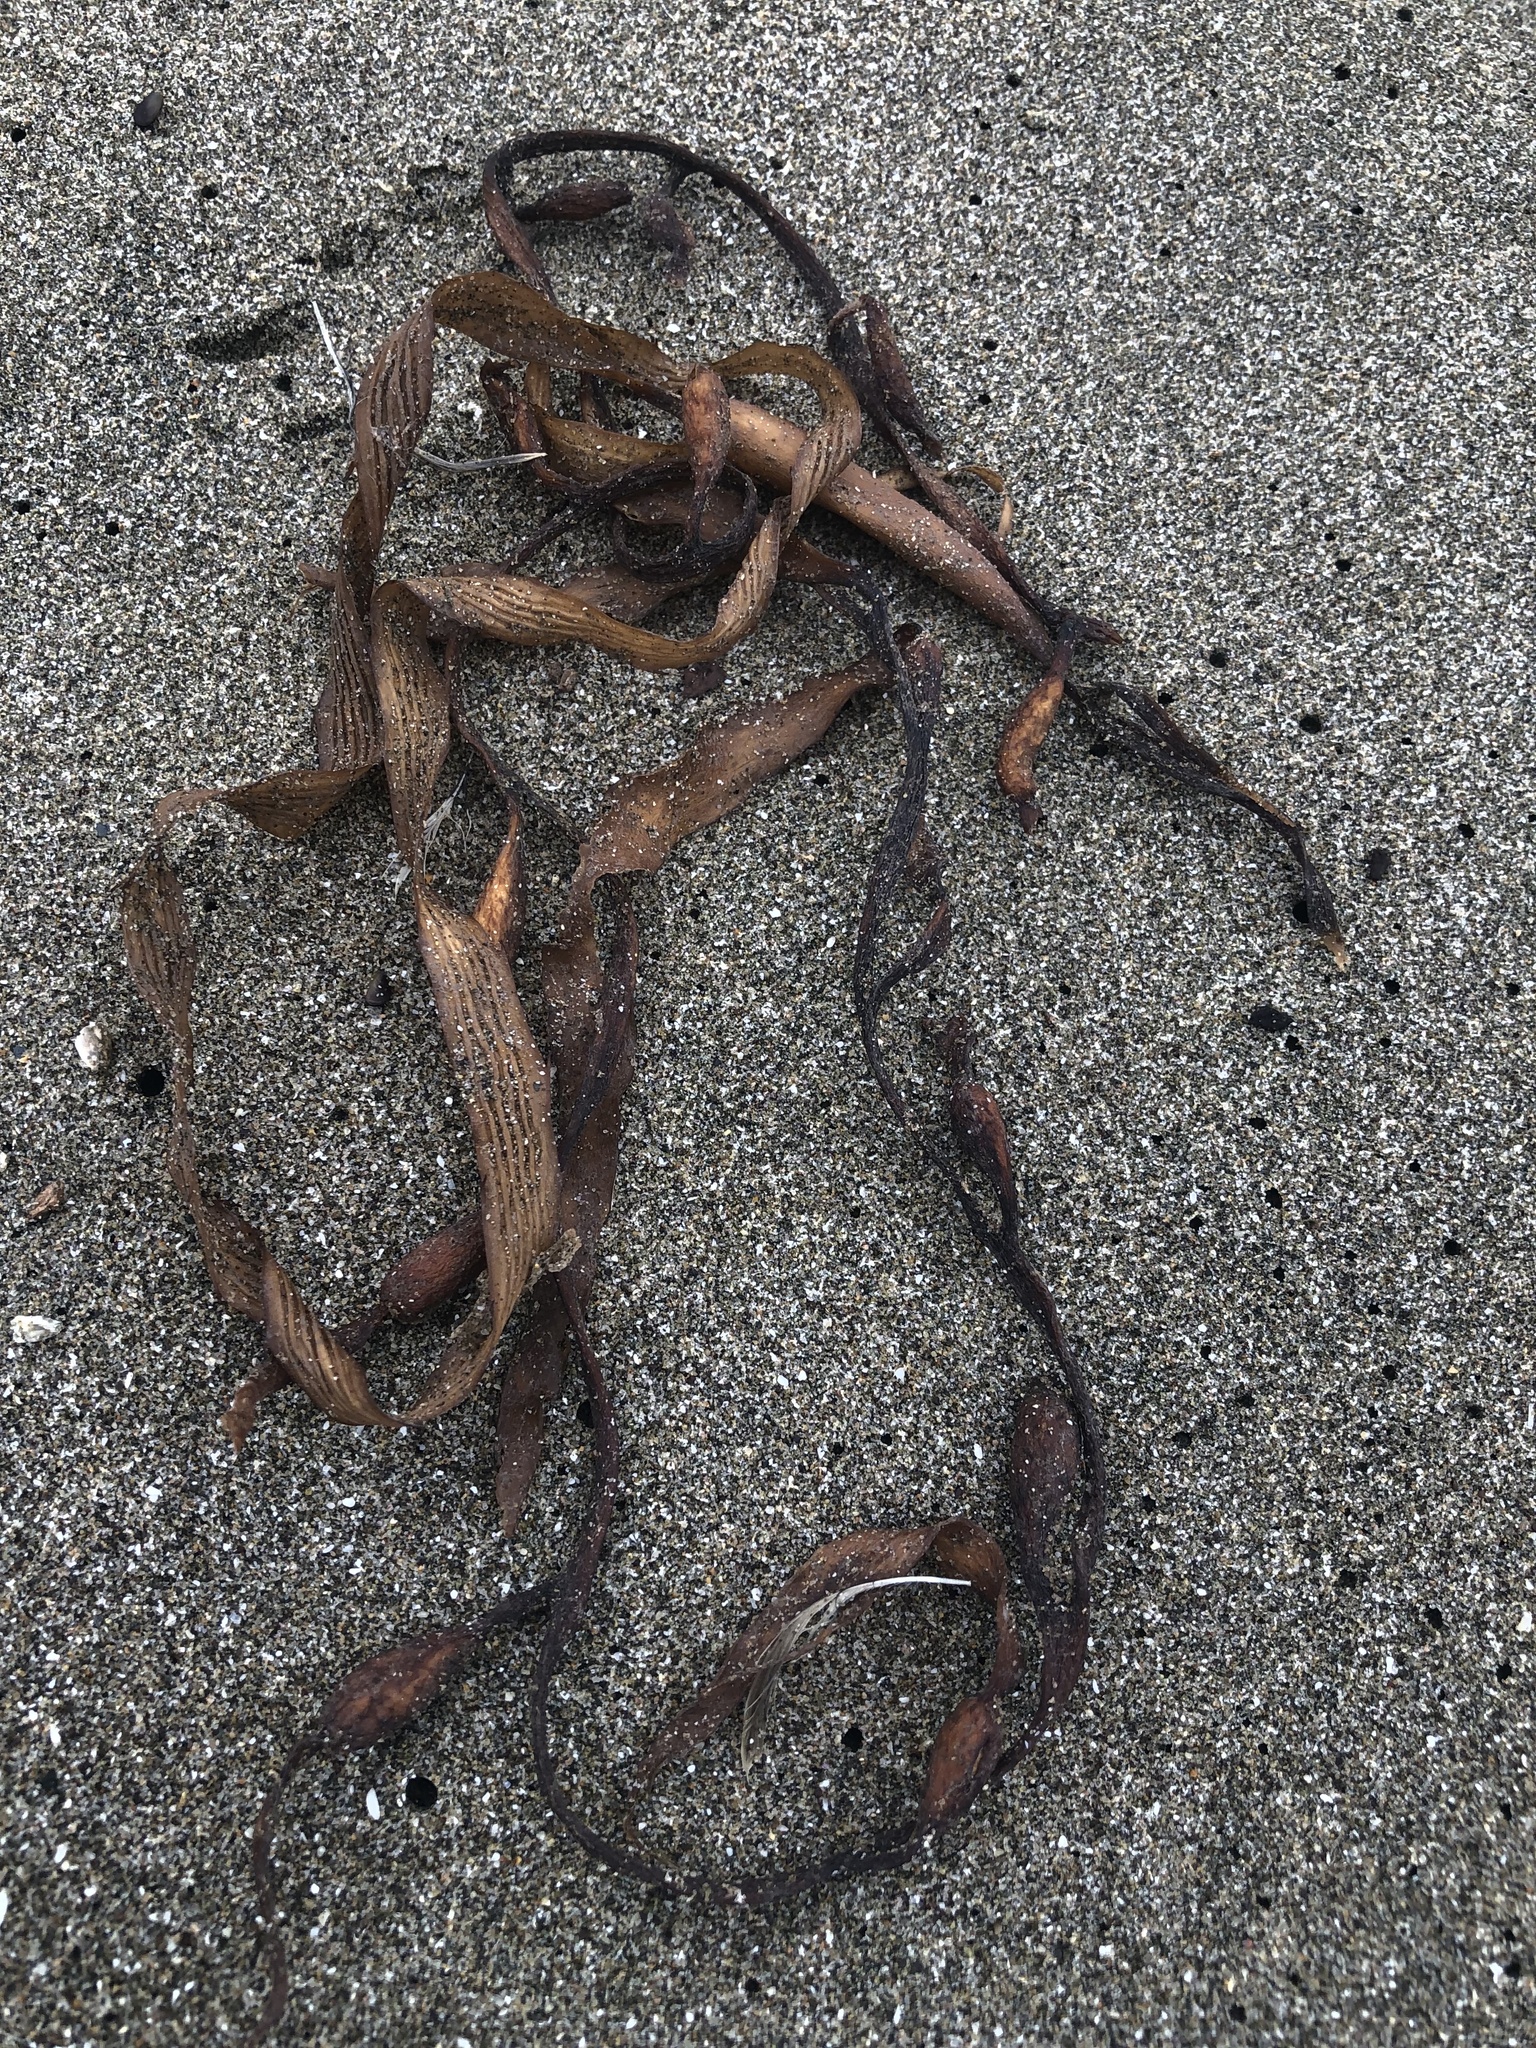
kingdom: Chromista
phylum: Ochrophyta
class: Phaeophyceae
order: Laminariales
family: Laminariaceae
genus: Macrocystis
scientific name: Macrocystis pyrifera
